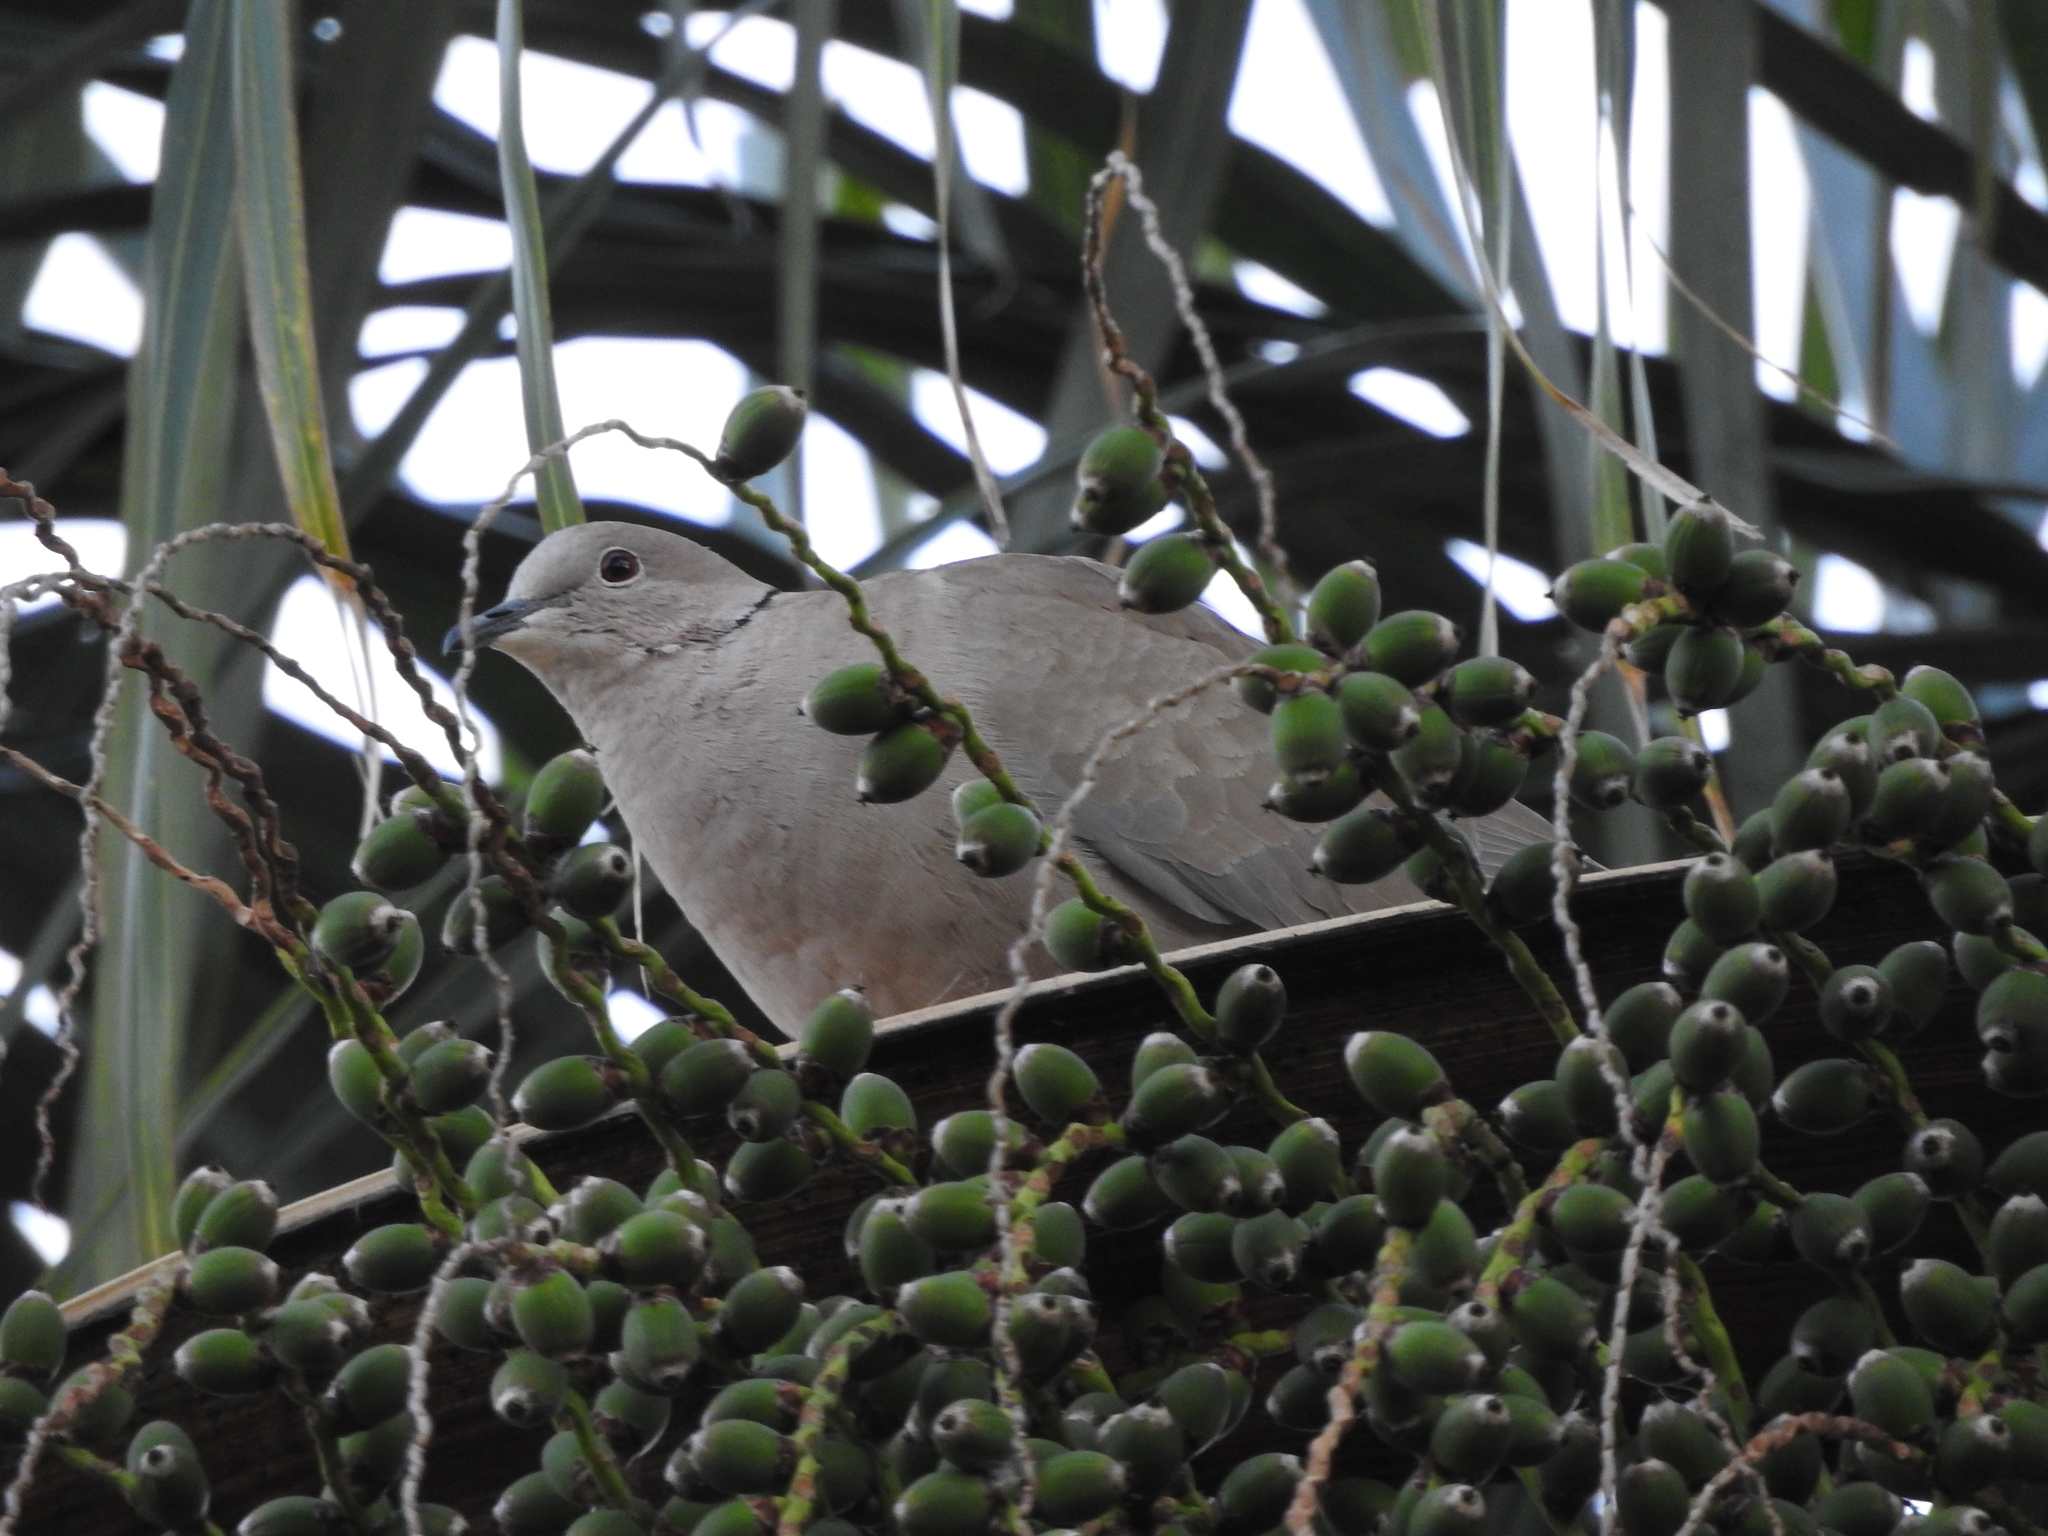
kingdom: Animalia
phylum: Chordata
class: Aves
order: Columbiformes
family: Columbidae
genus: Streptopelia
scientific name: Streptopelia decaocto
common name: Eurasian collared dove
